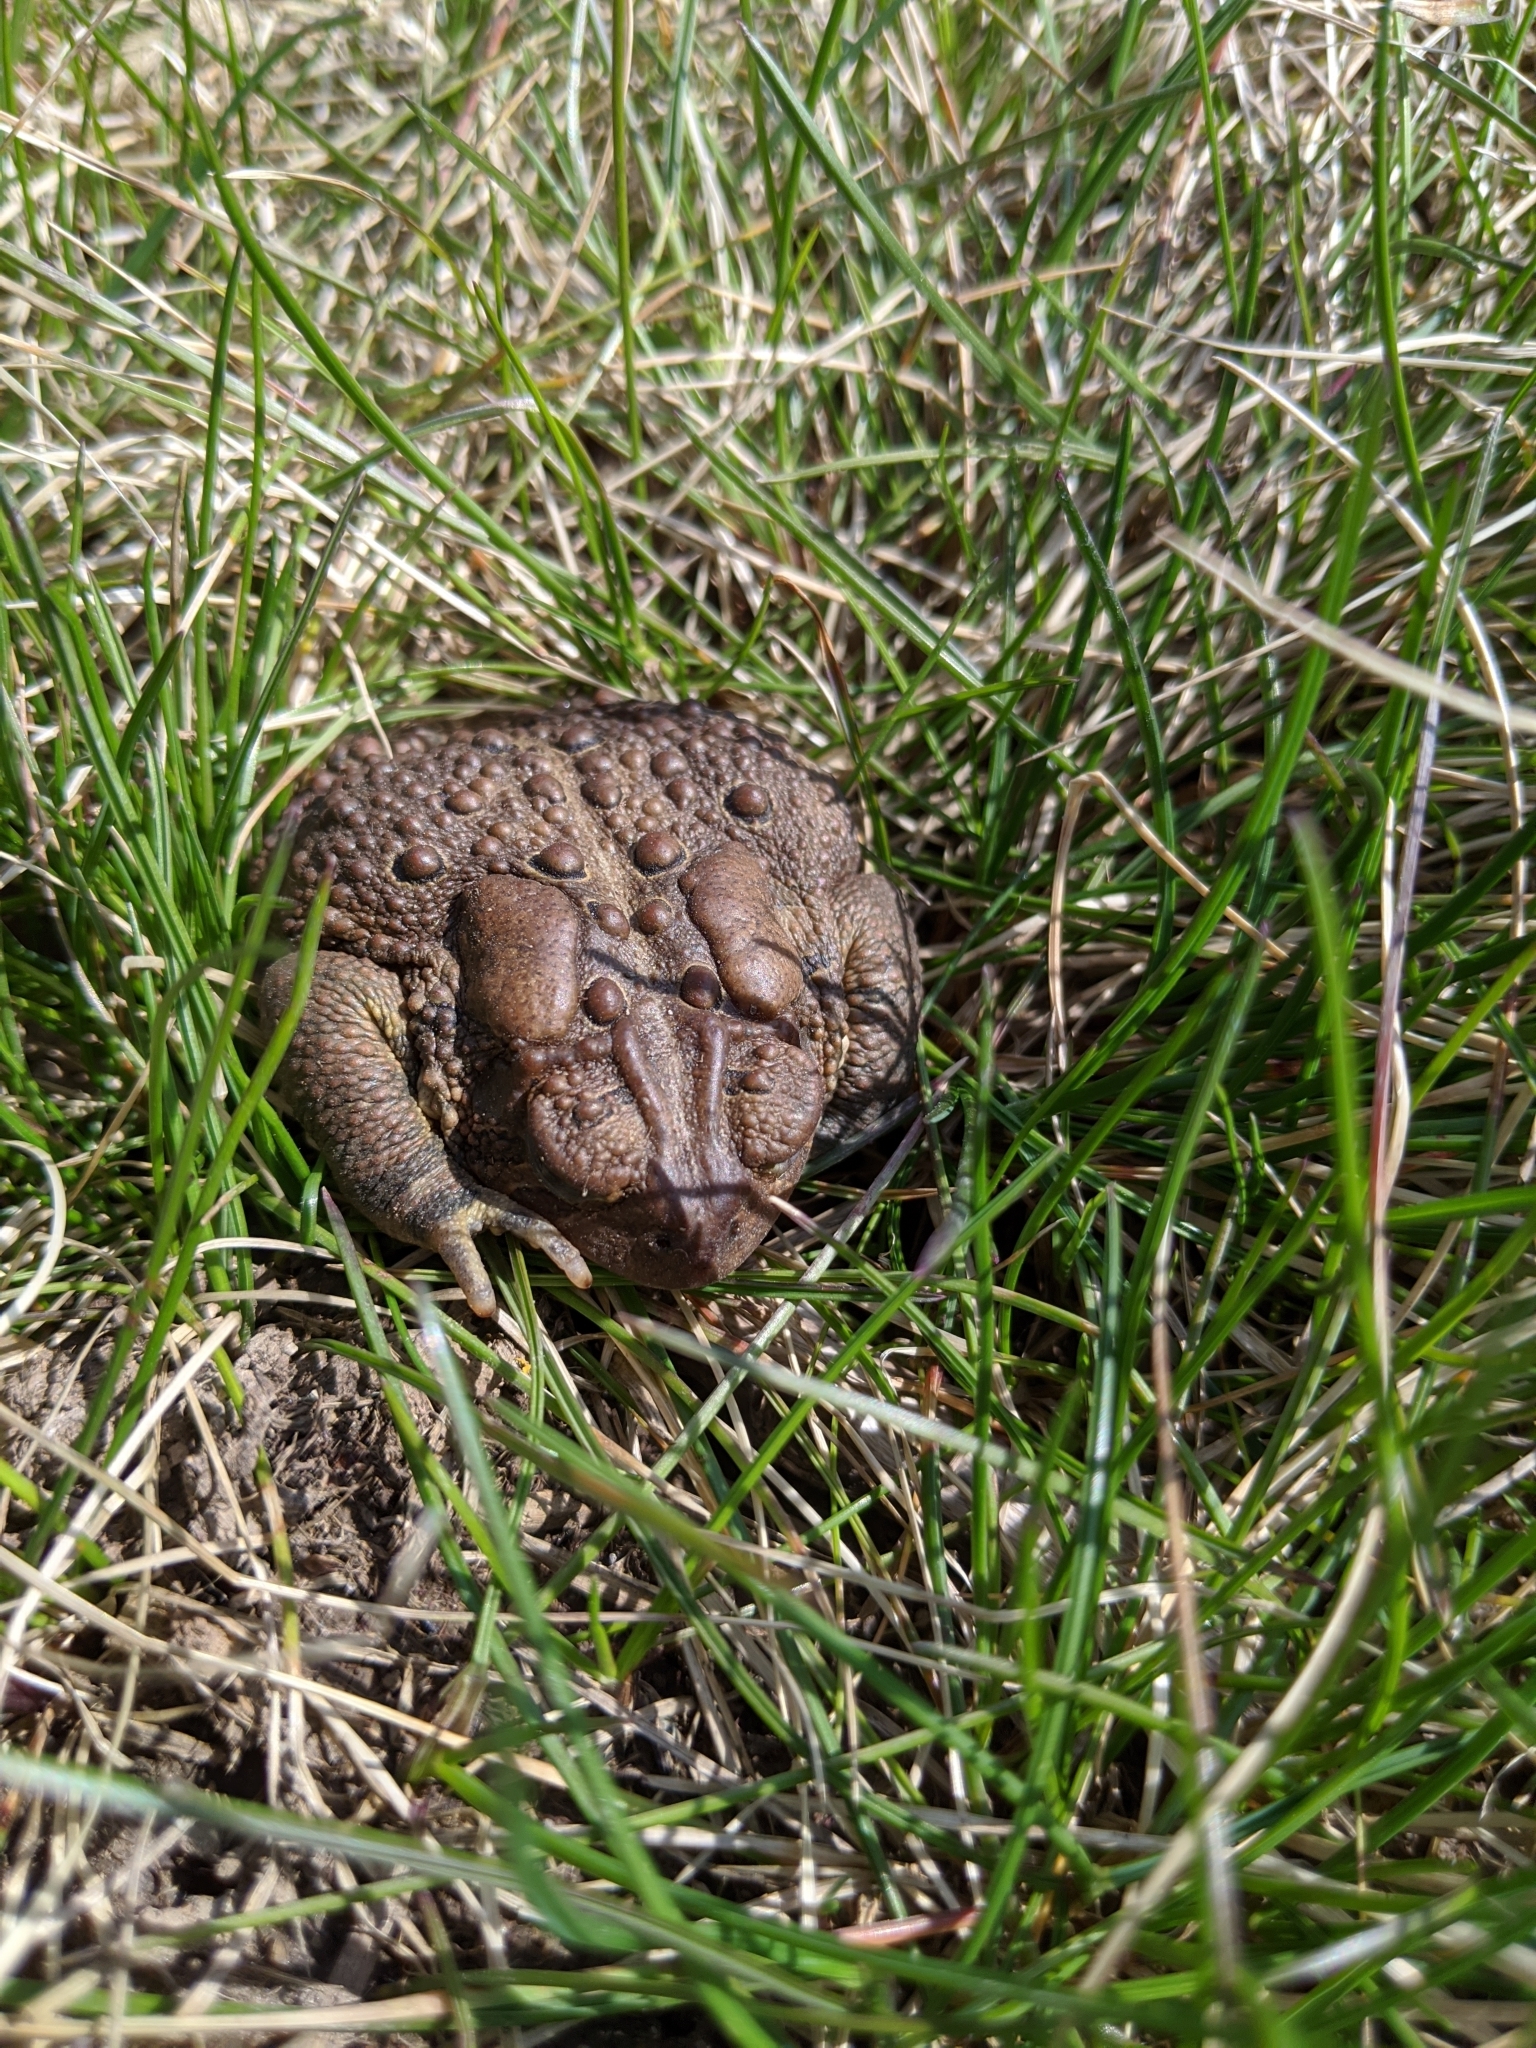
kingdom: Animalia
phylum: Chordata
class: Amphibia
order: Anura
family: Bufonidae
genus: Anaxyrus
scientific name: Anaxyrus americanus
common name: American toad
